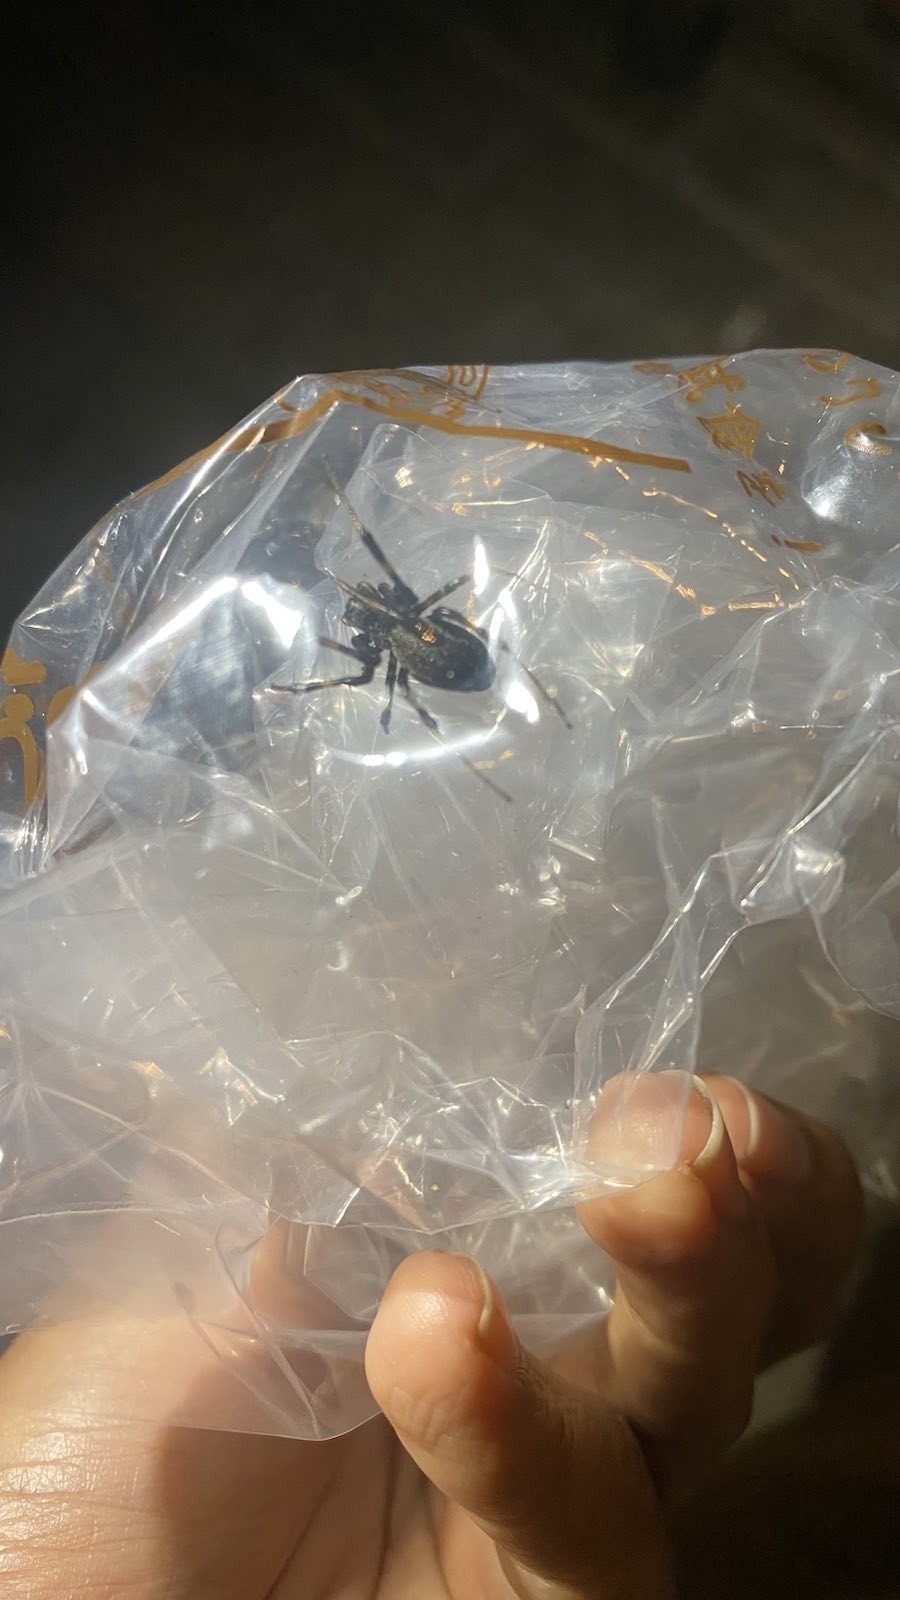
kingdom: Animalia
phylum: Arthropoda
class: Arachnida
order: Araneae
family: Araneidae
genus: Nephilengys
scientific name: Nephilengys malabarensis
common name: Asian hermit spider
